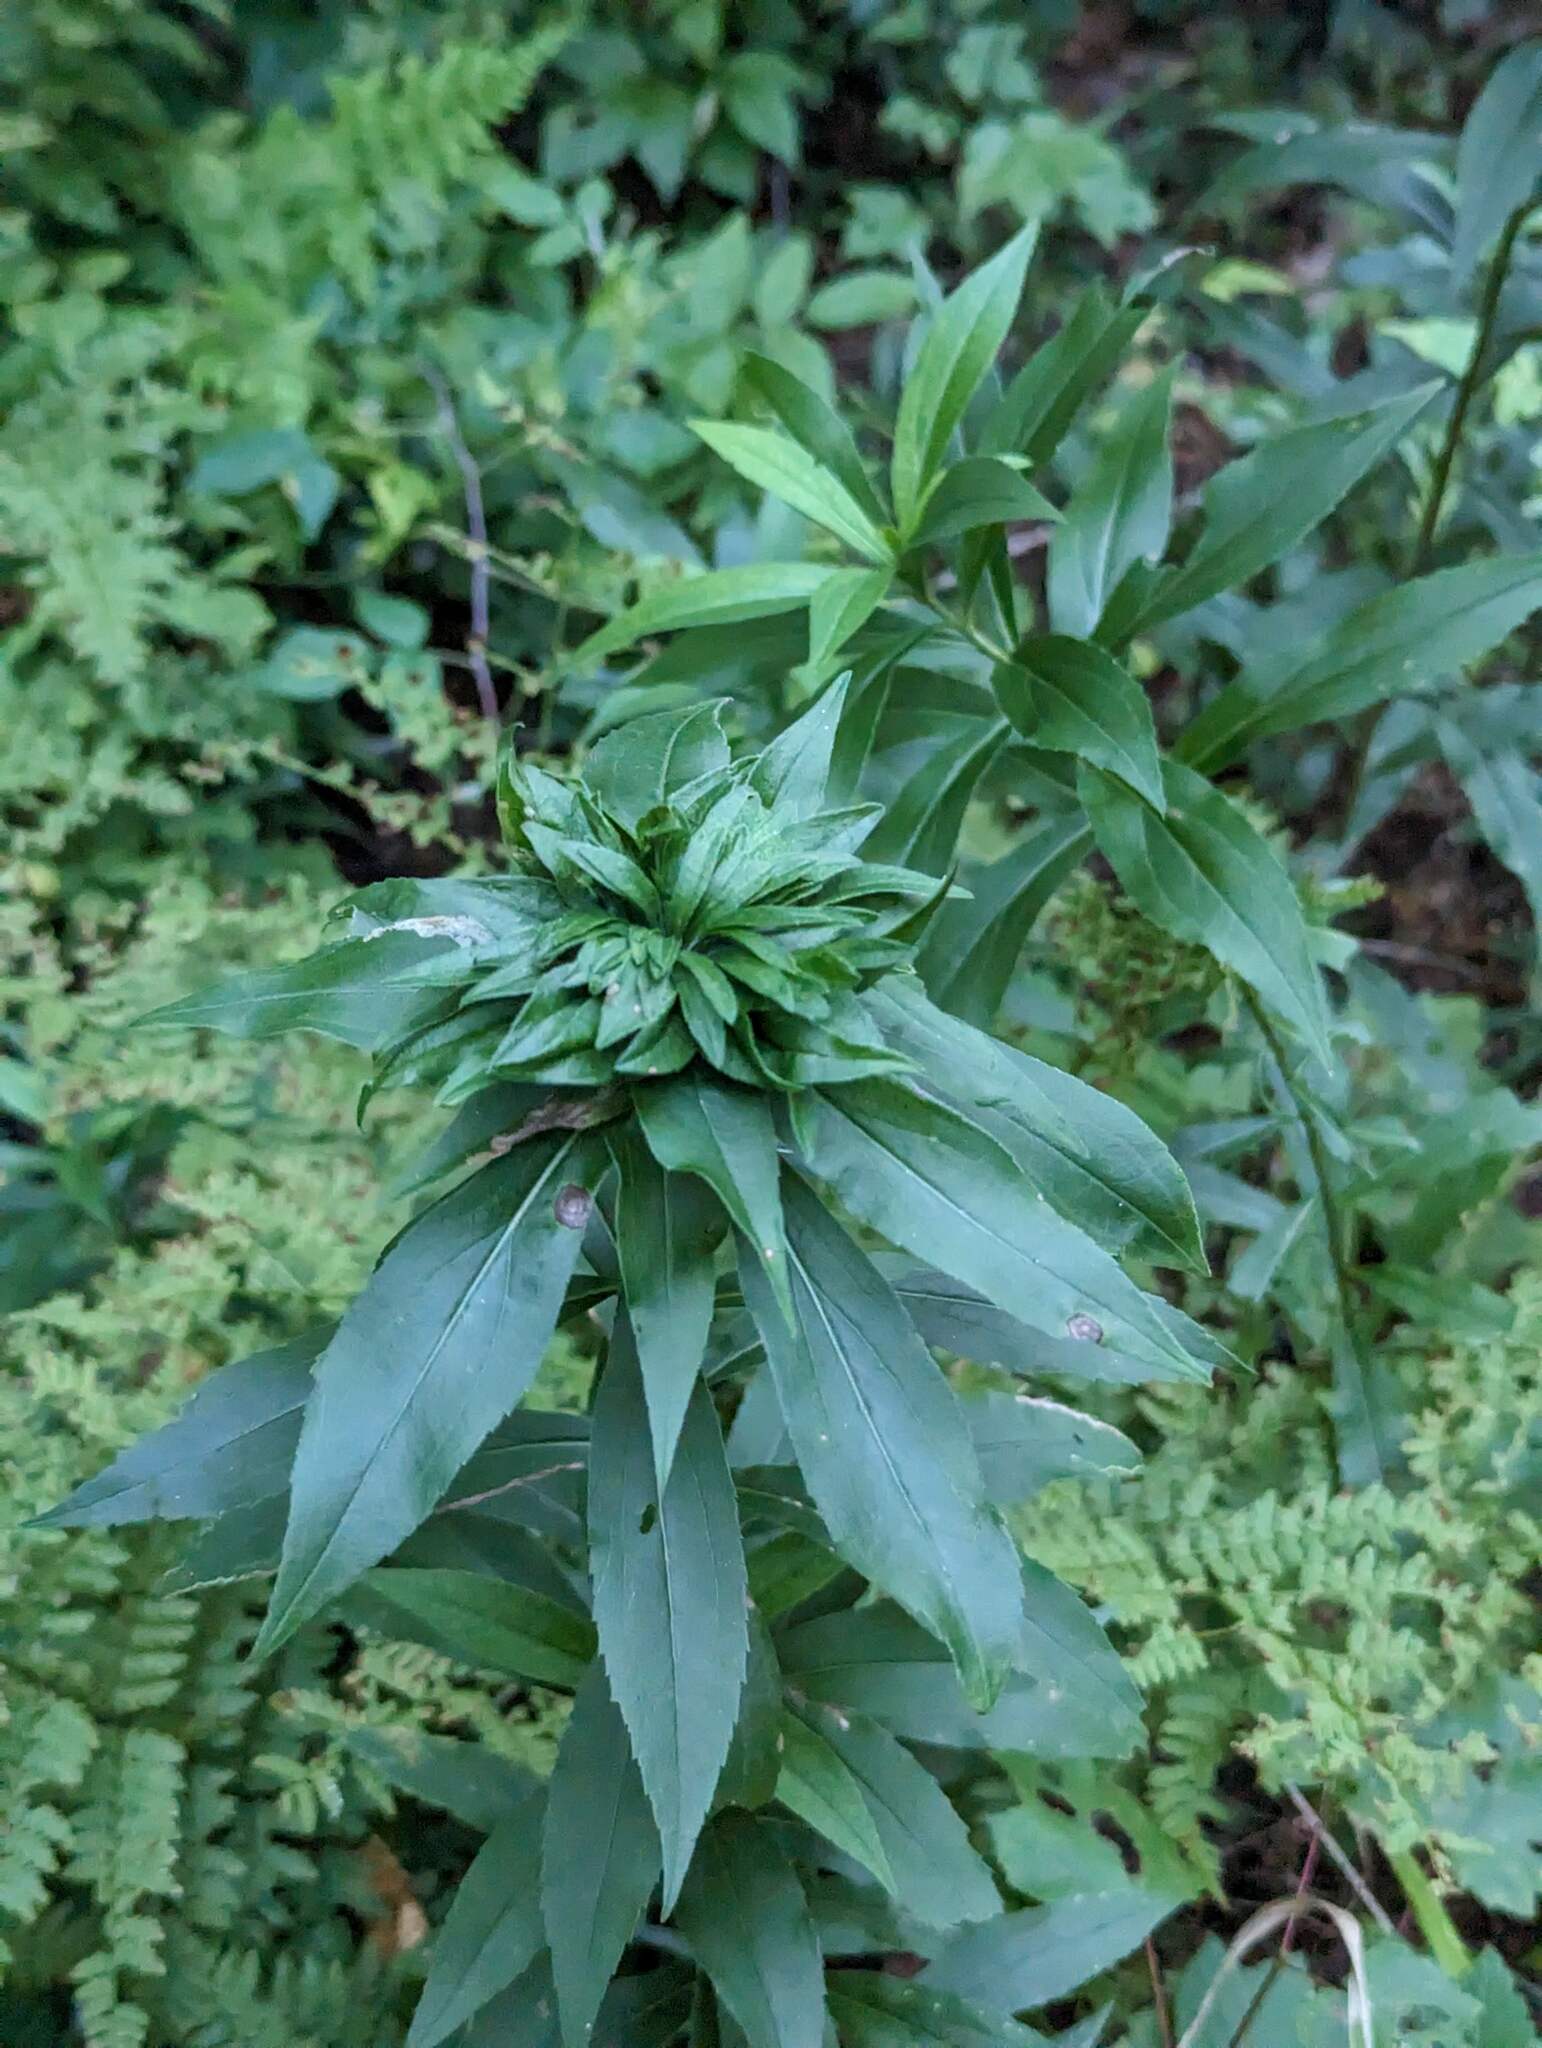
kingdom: Animalia
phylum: Arthropoda
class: Insecta
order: Diptera
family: Cecidomyiidae
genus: Rhopalomyia
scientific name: Rhopalomyia capitata
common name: Giant goldenrod bunch gall midge
